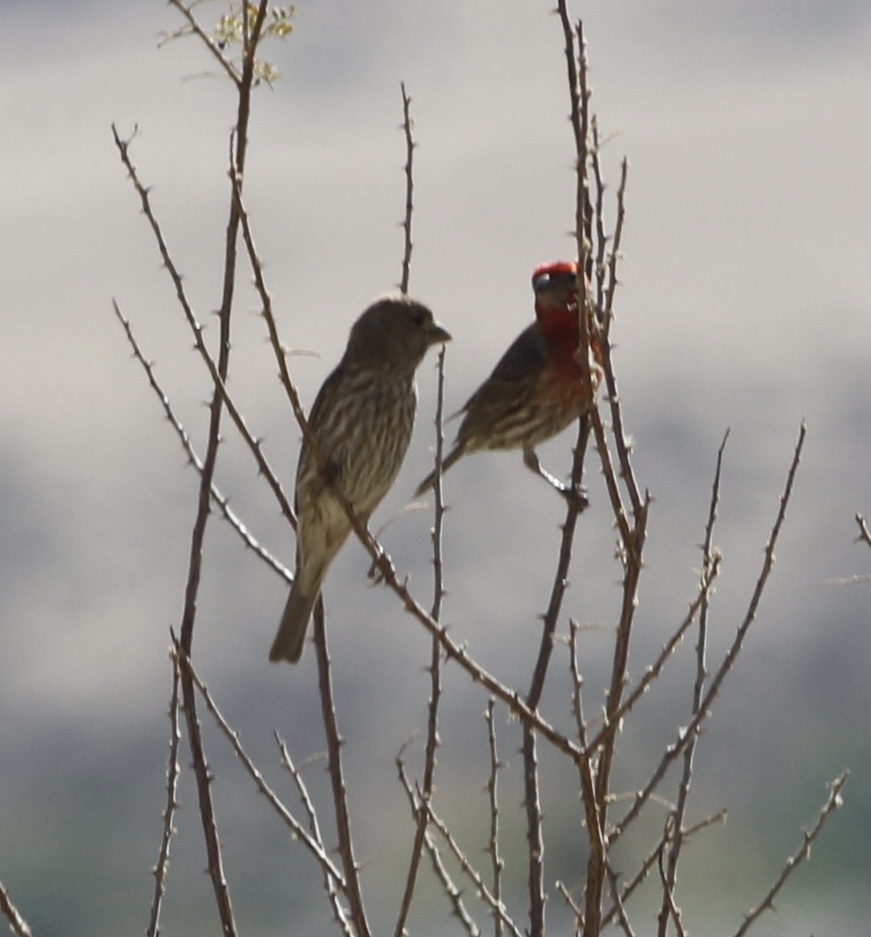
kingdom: Animalia
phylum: Chordata
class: Aves
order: Passeriformes
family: Fringillidae
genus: Haemorhous
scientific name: Haemorhous mexicanus
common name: House finch
